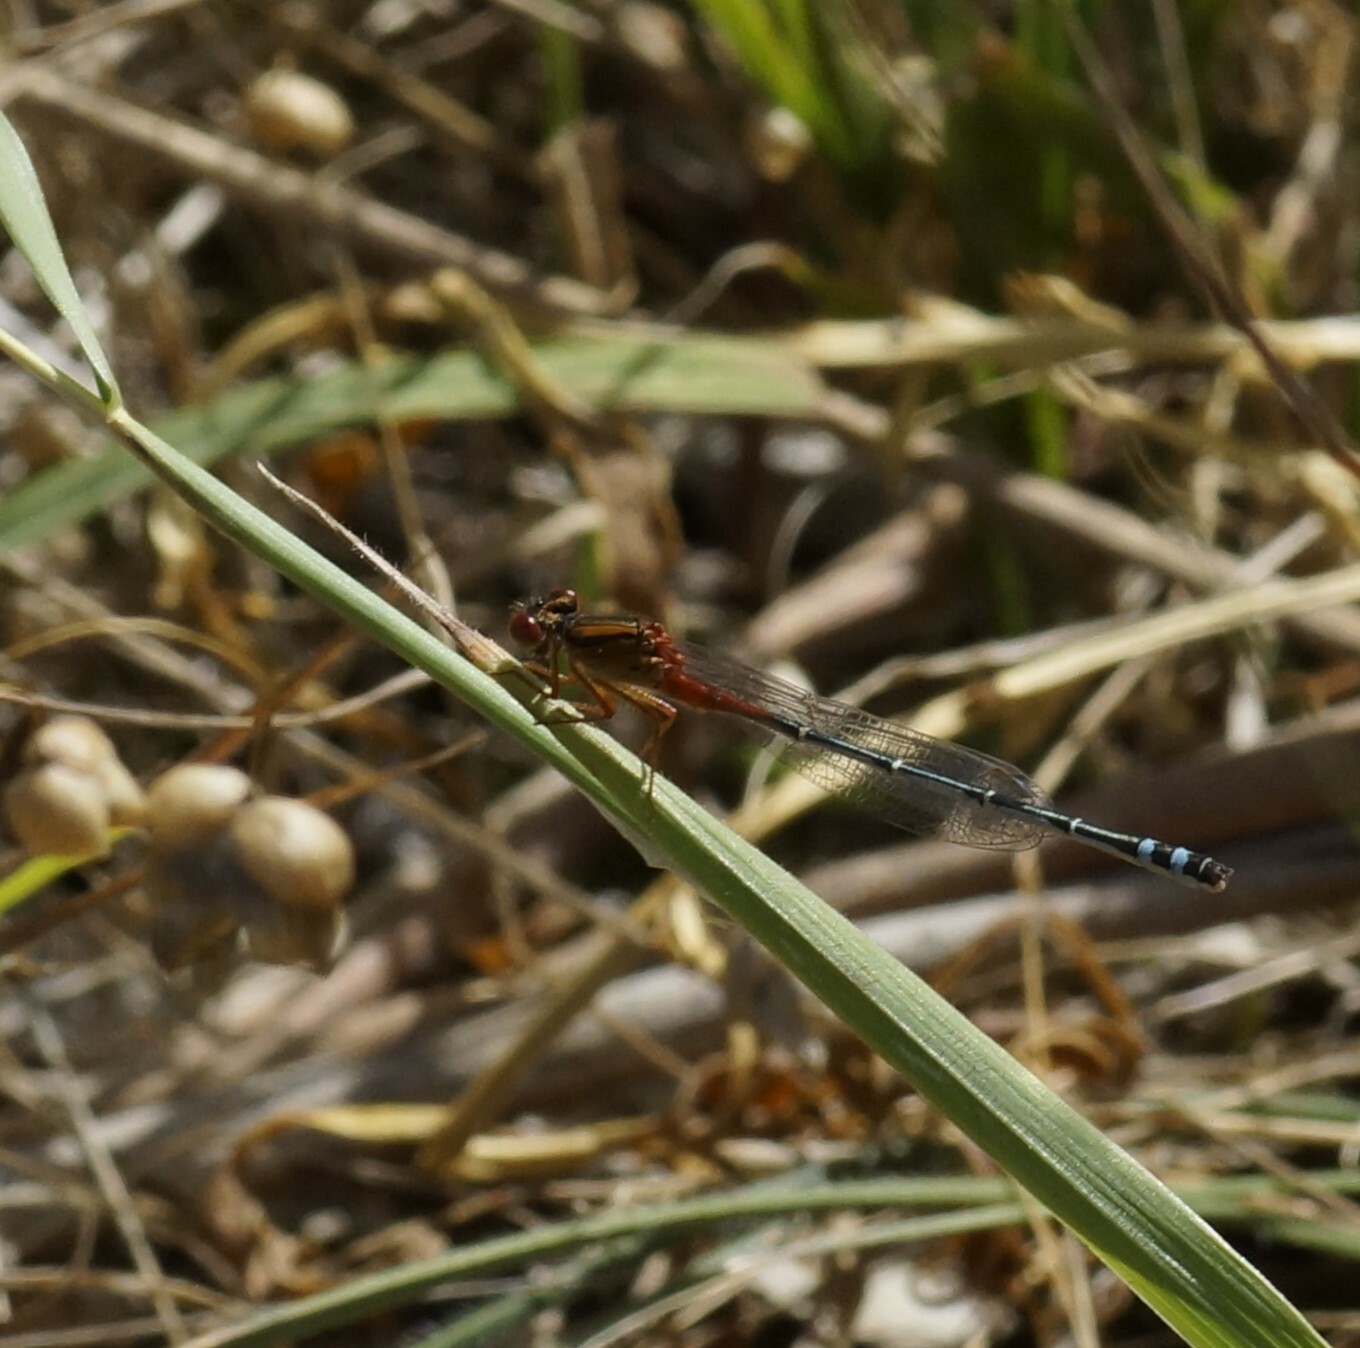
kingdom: Animalia
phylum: Arthropoda
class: Insecta
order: Odonata
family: Coenagrionidae
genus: Xanthagrion
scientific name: Xanthagrion erythroneurum
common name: Red and blue damsel
